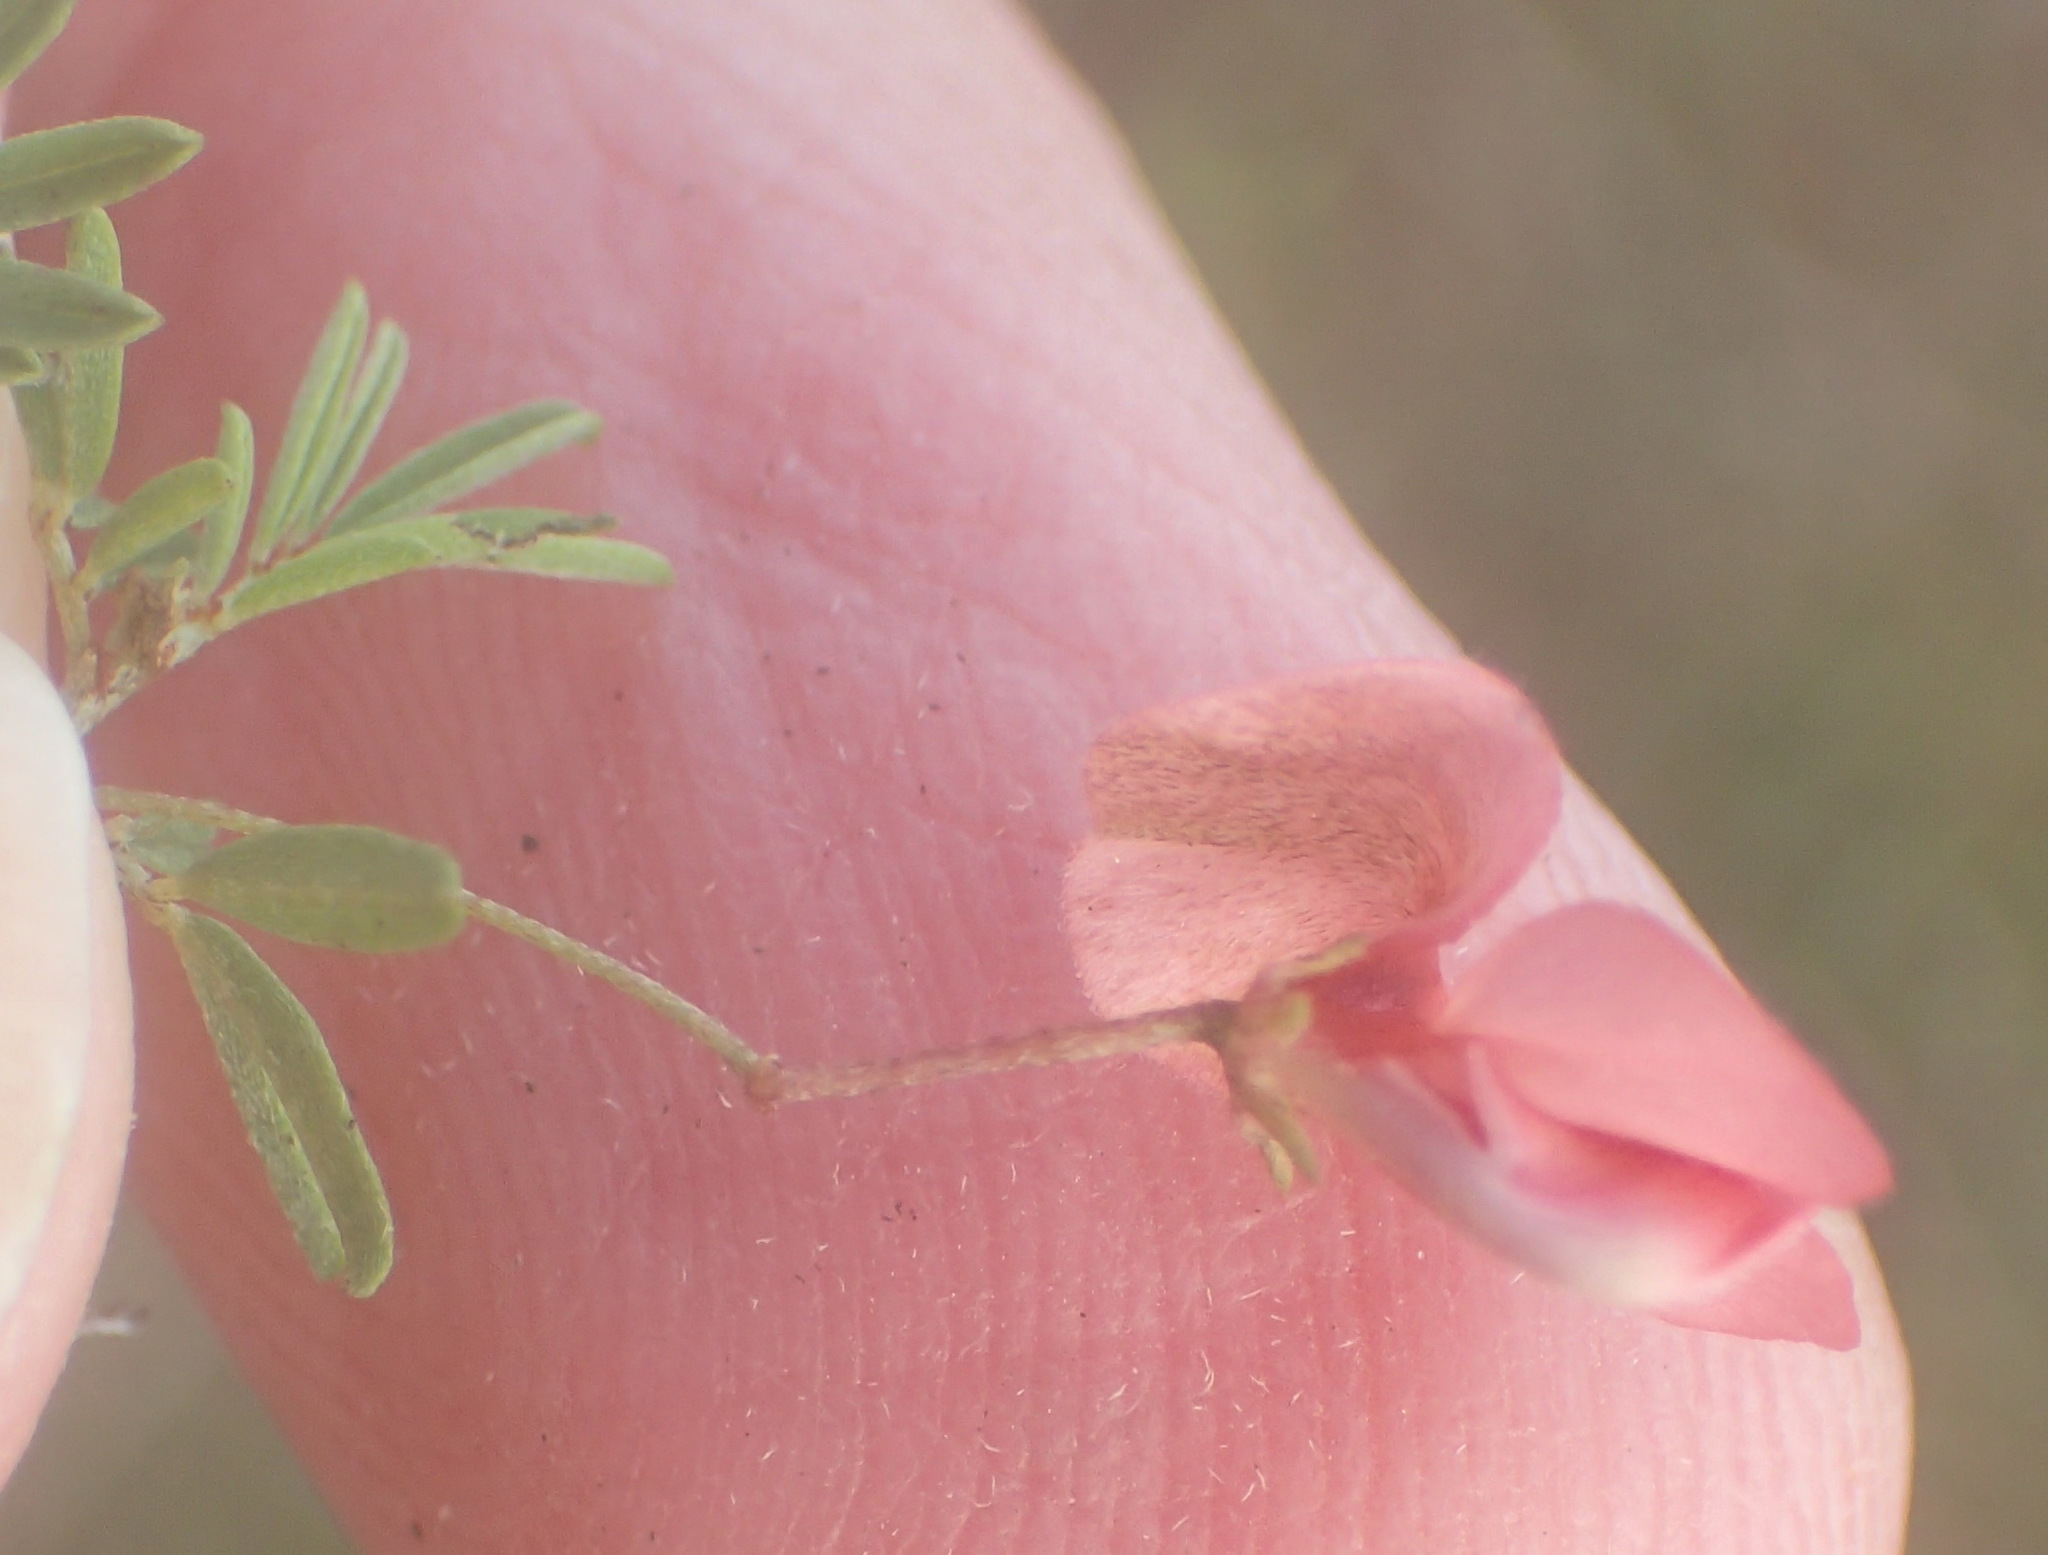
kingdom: Plantae
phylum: Tracheophyta
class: Magnoliopsida
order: Fabales
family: Fabaceae
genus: Indigofera
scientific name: Indigofera verrucosa
